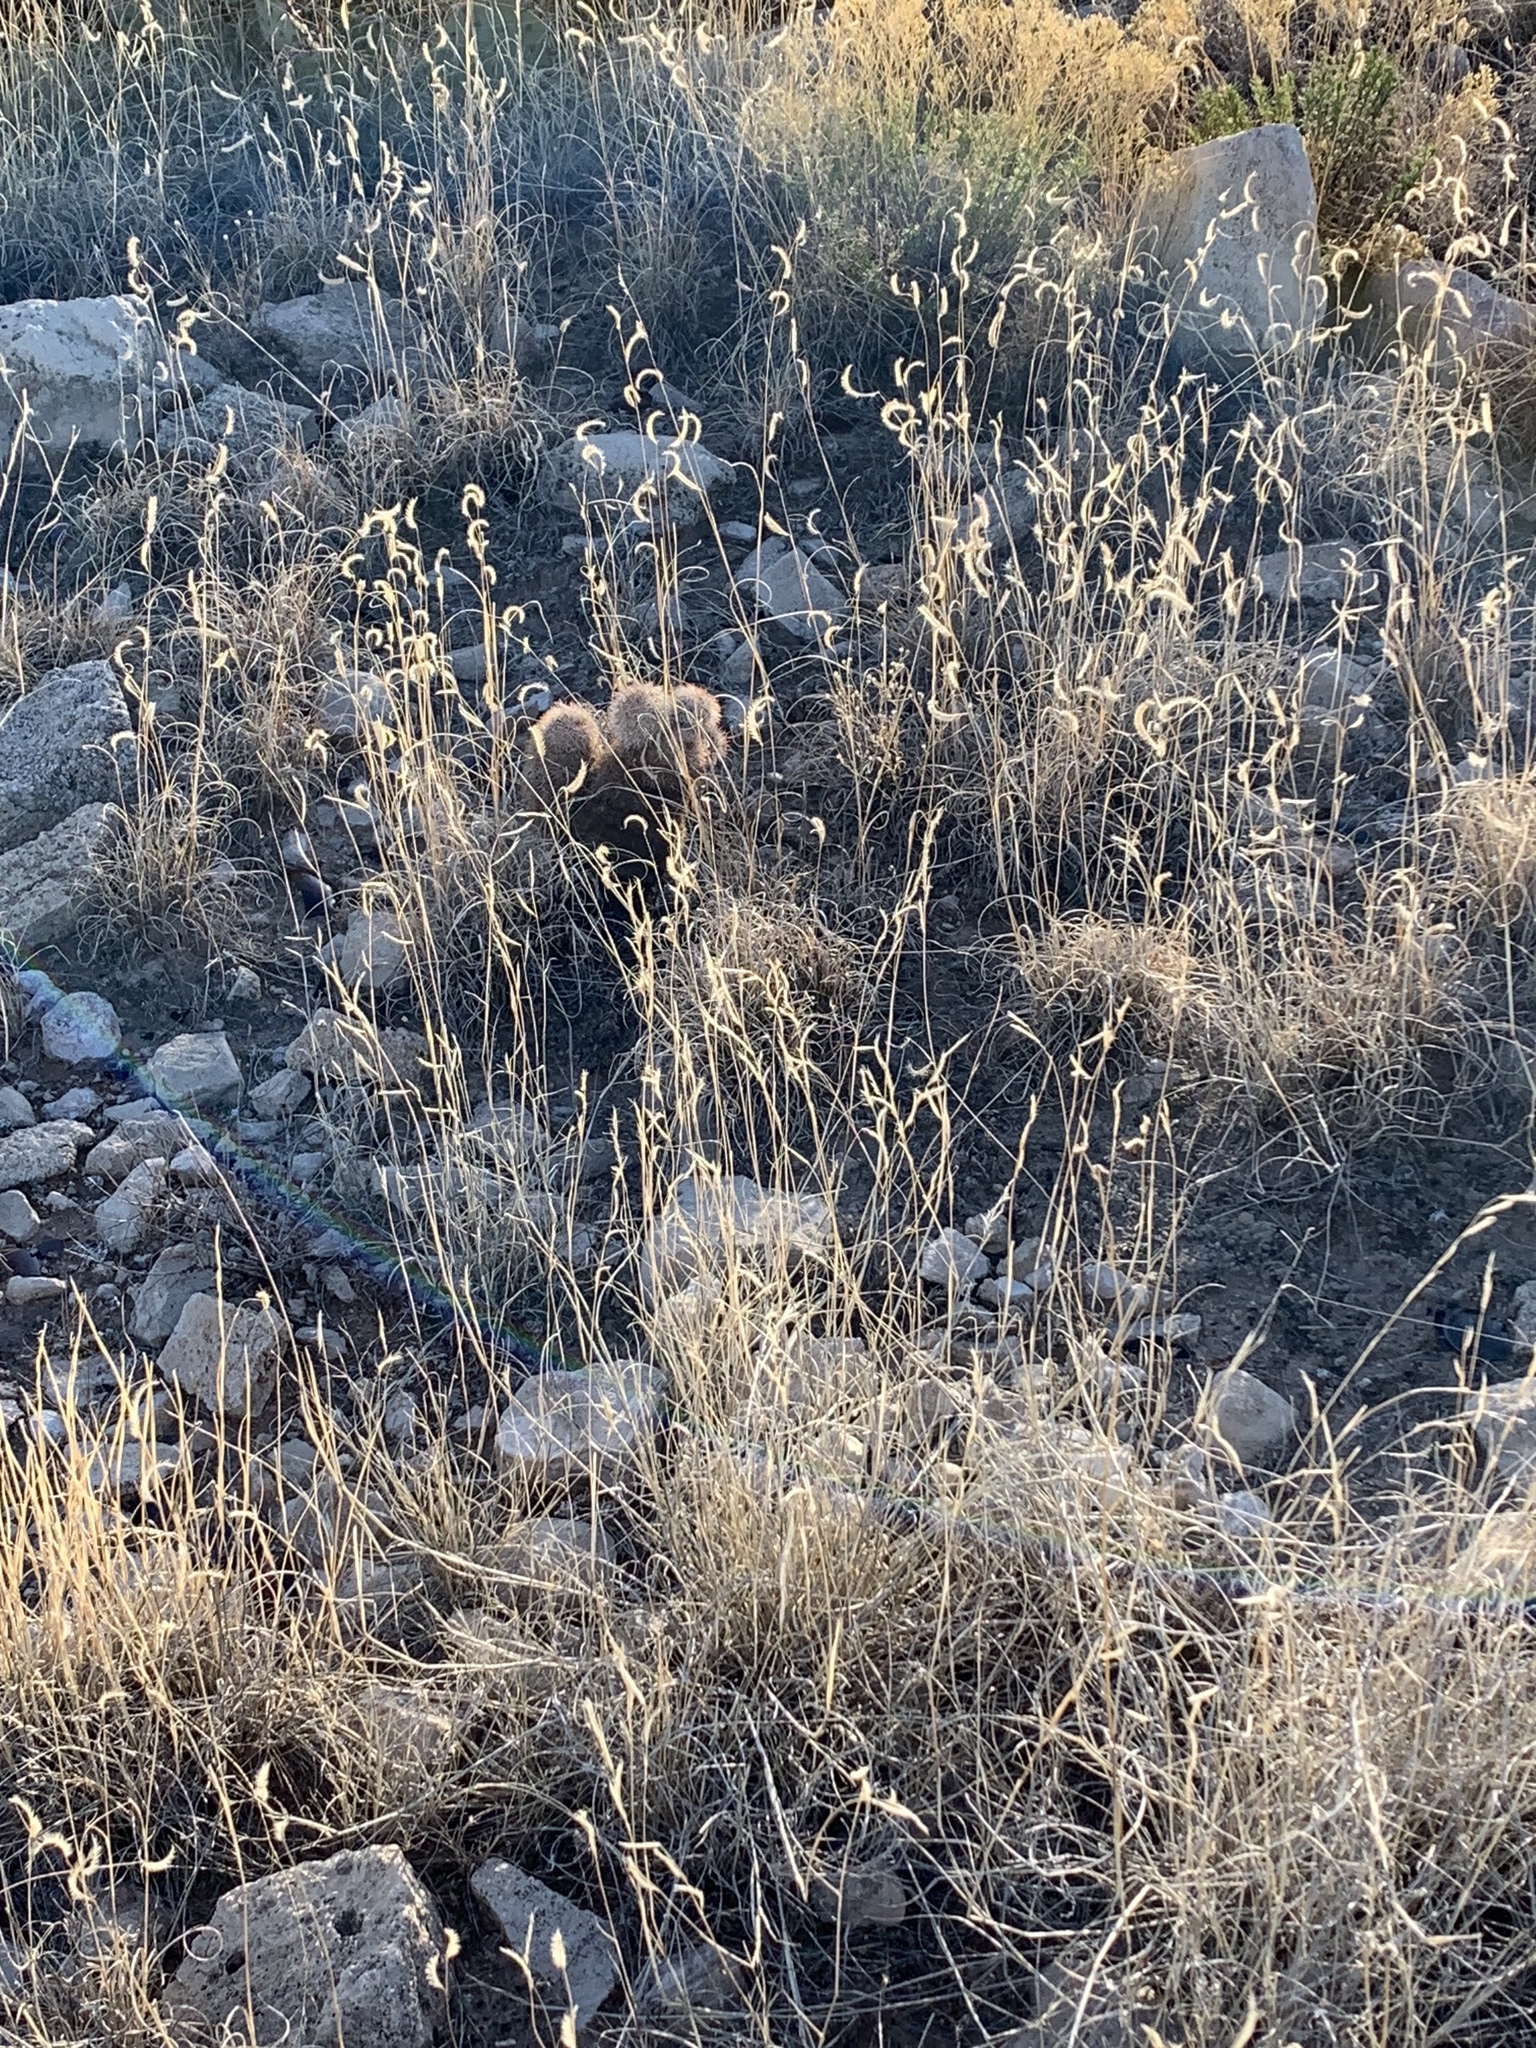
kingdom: Plantae
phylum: Tracheophyta
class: Liliopsida
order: Poales
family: Poaceae
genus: Bouteloua
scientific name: Bouteloua gracilis
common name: Blue grama
